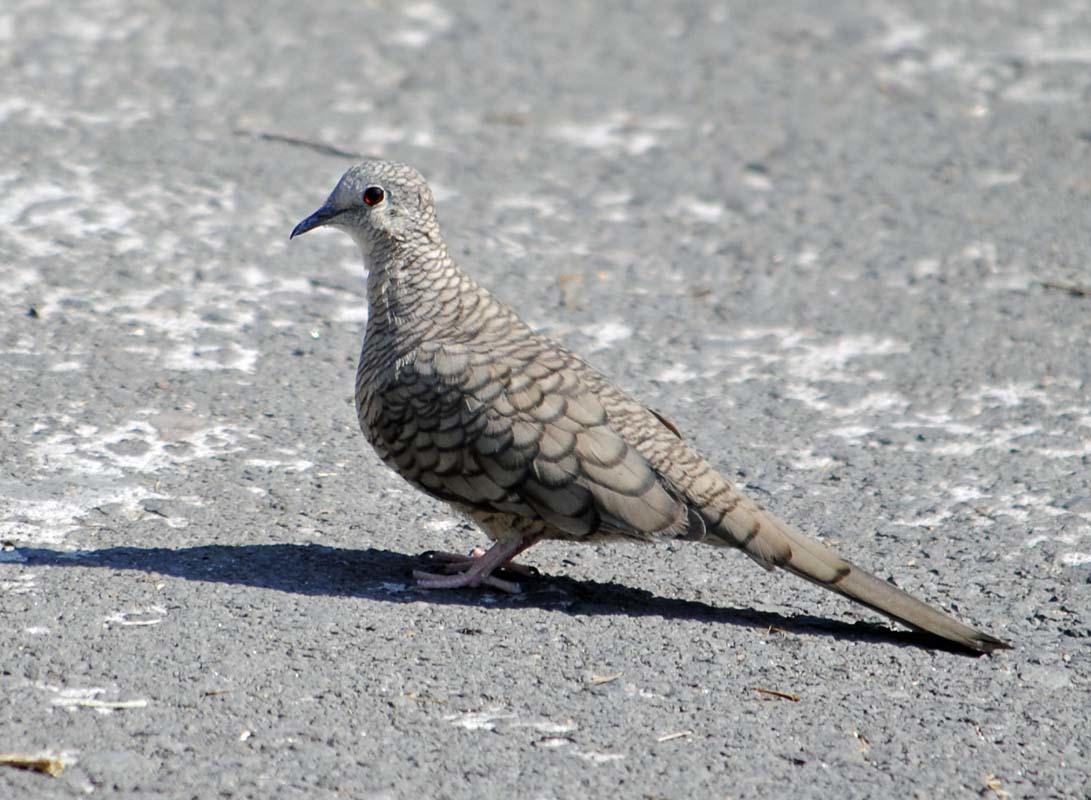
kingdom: Animalia
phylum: Chordata
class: Aves
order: Columbiformes
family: Columbidae
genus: Columbina
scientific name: Columbina inca
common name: Inca dove
